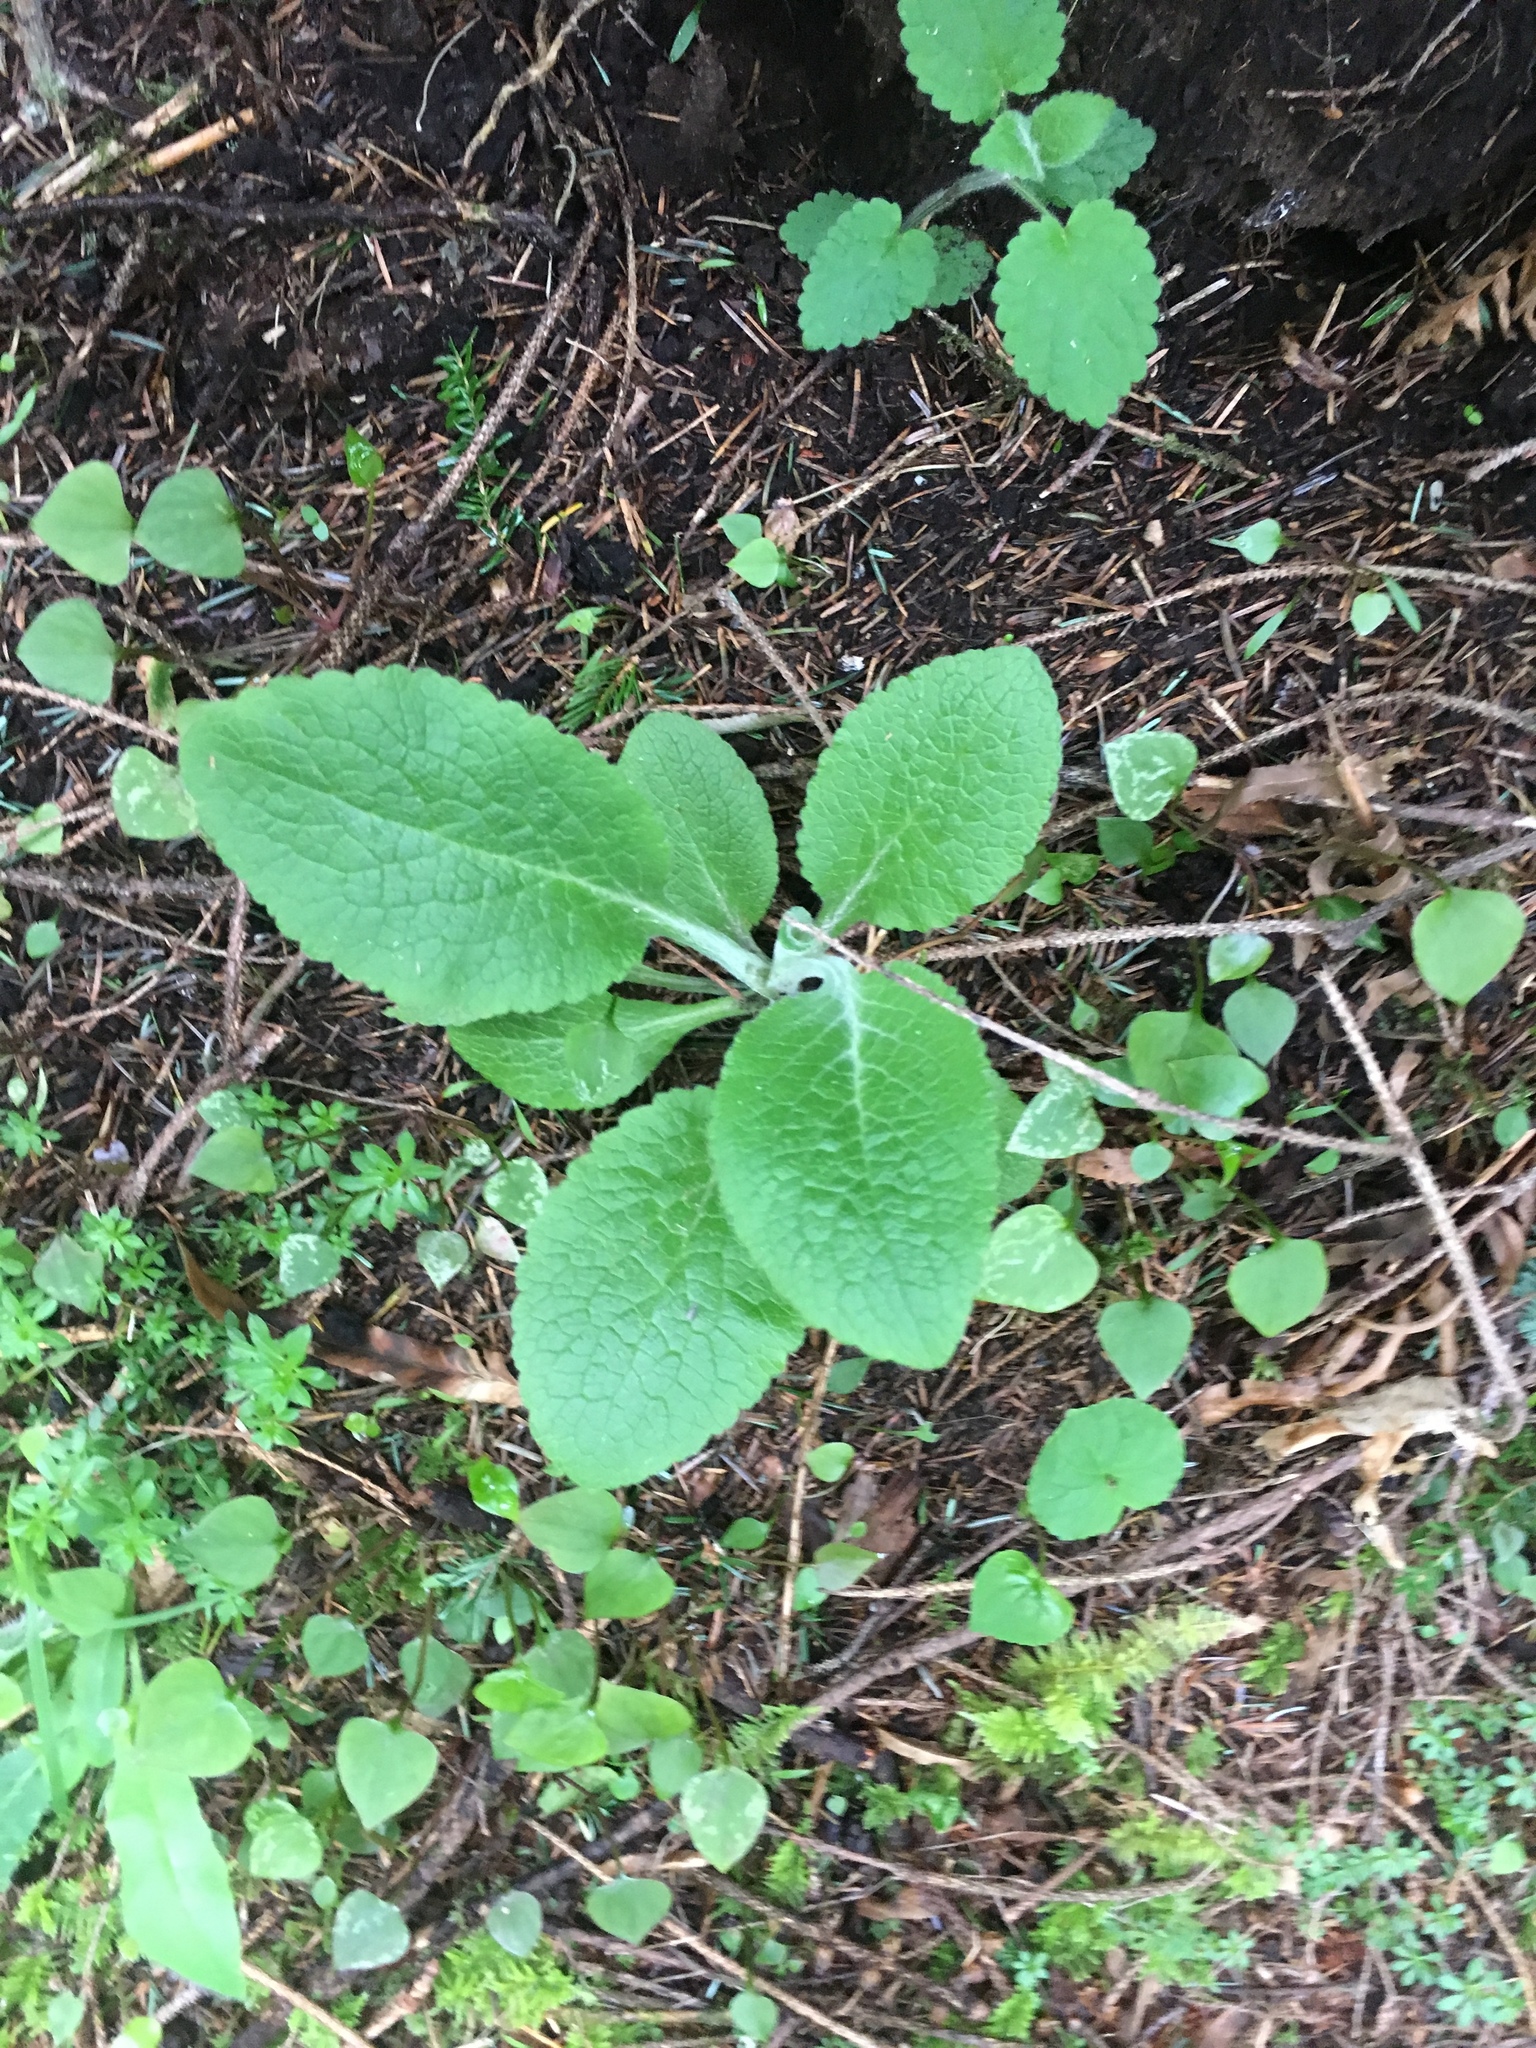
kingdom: Plantae
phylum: Tracheophyta
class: Magnoliopsida
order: Lamiales
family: Plantaginaceae
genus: Digitalis
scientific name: Digitalis purpurea
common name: Foxglove
